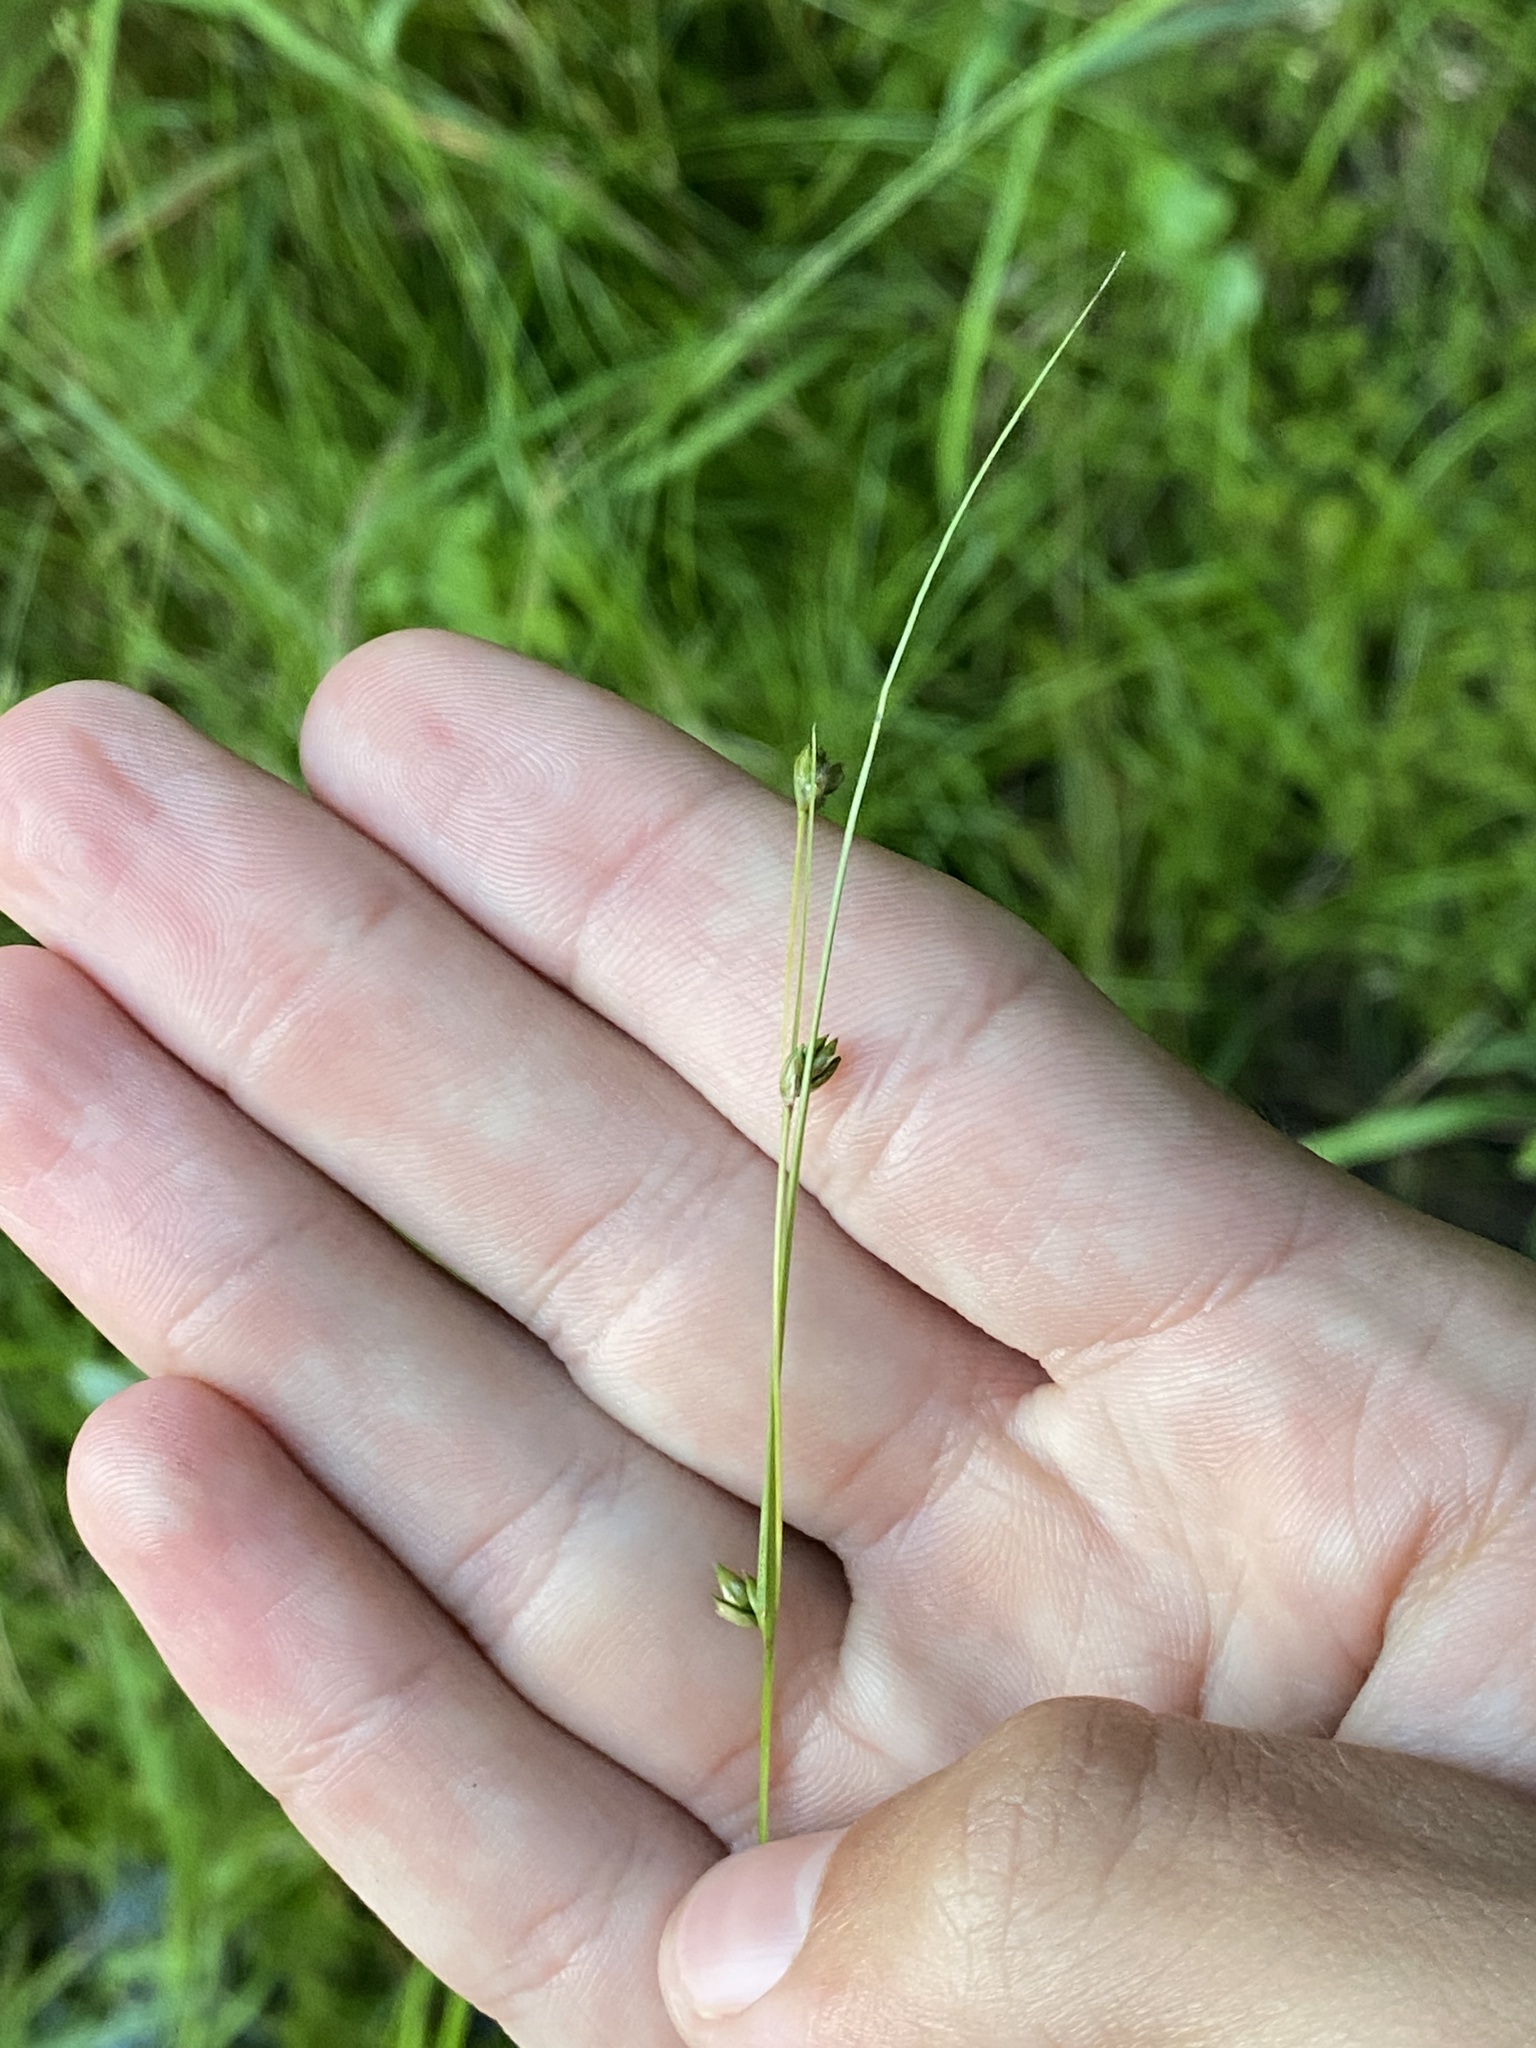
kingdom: Plantae
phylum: Tracheophyta
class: Liliopsida
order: Poales
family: Cyperaceae
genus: Carex
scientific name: Carex trisperma
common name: Three-seeded sedge
